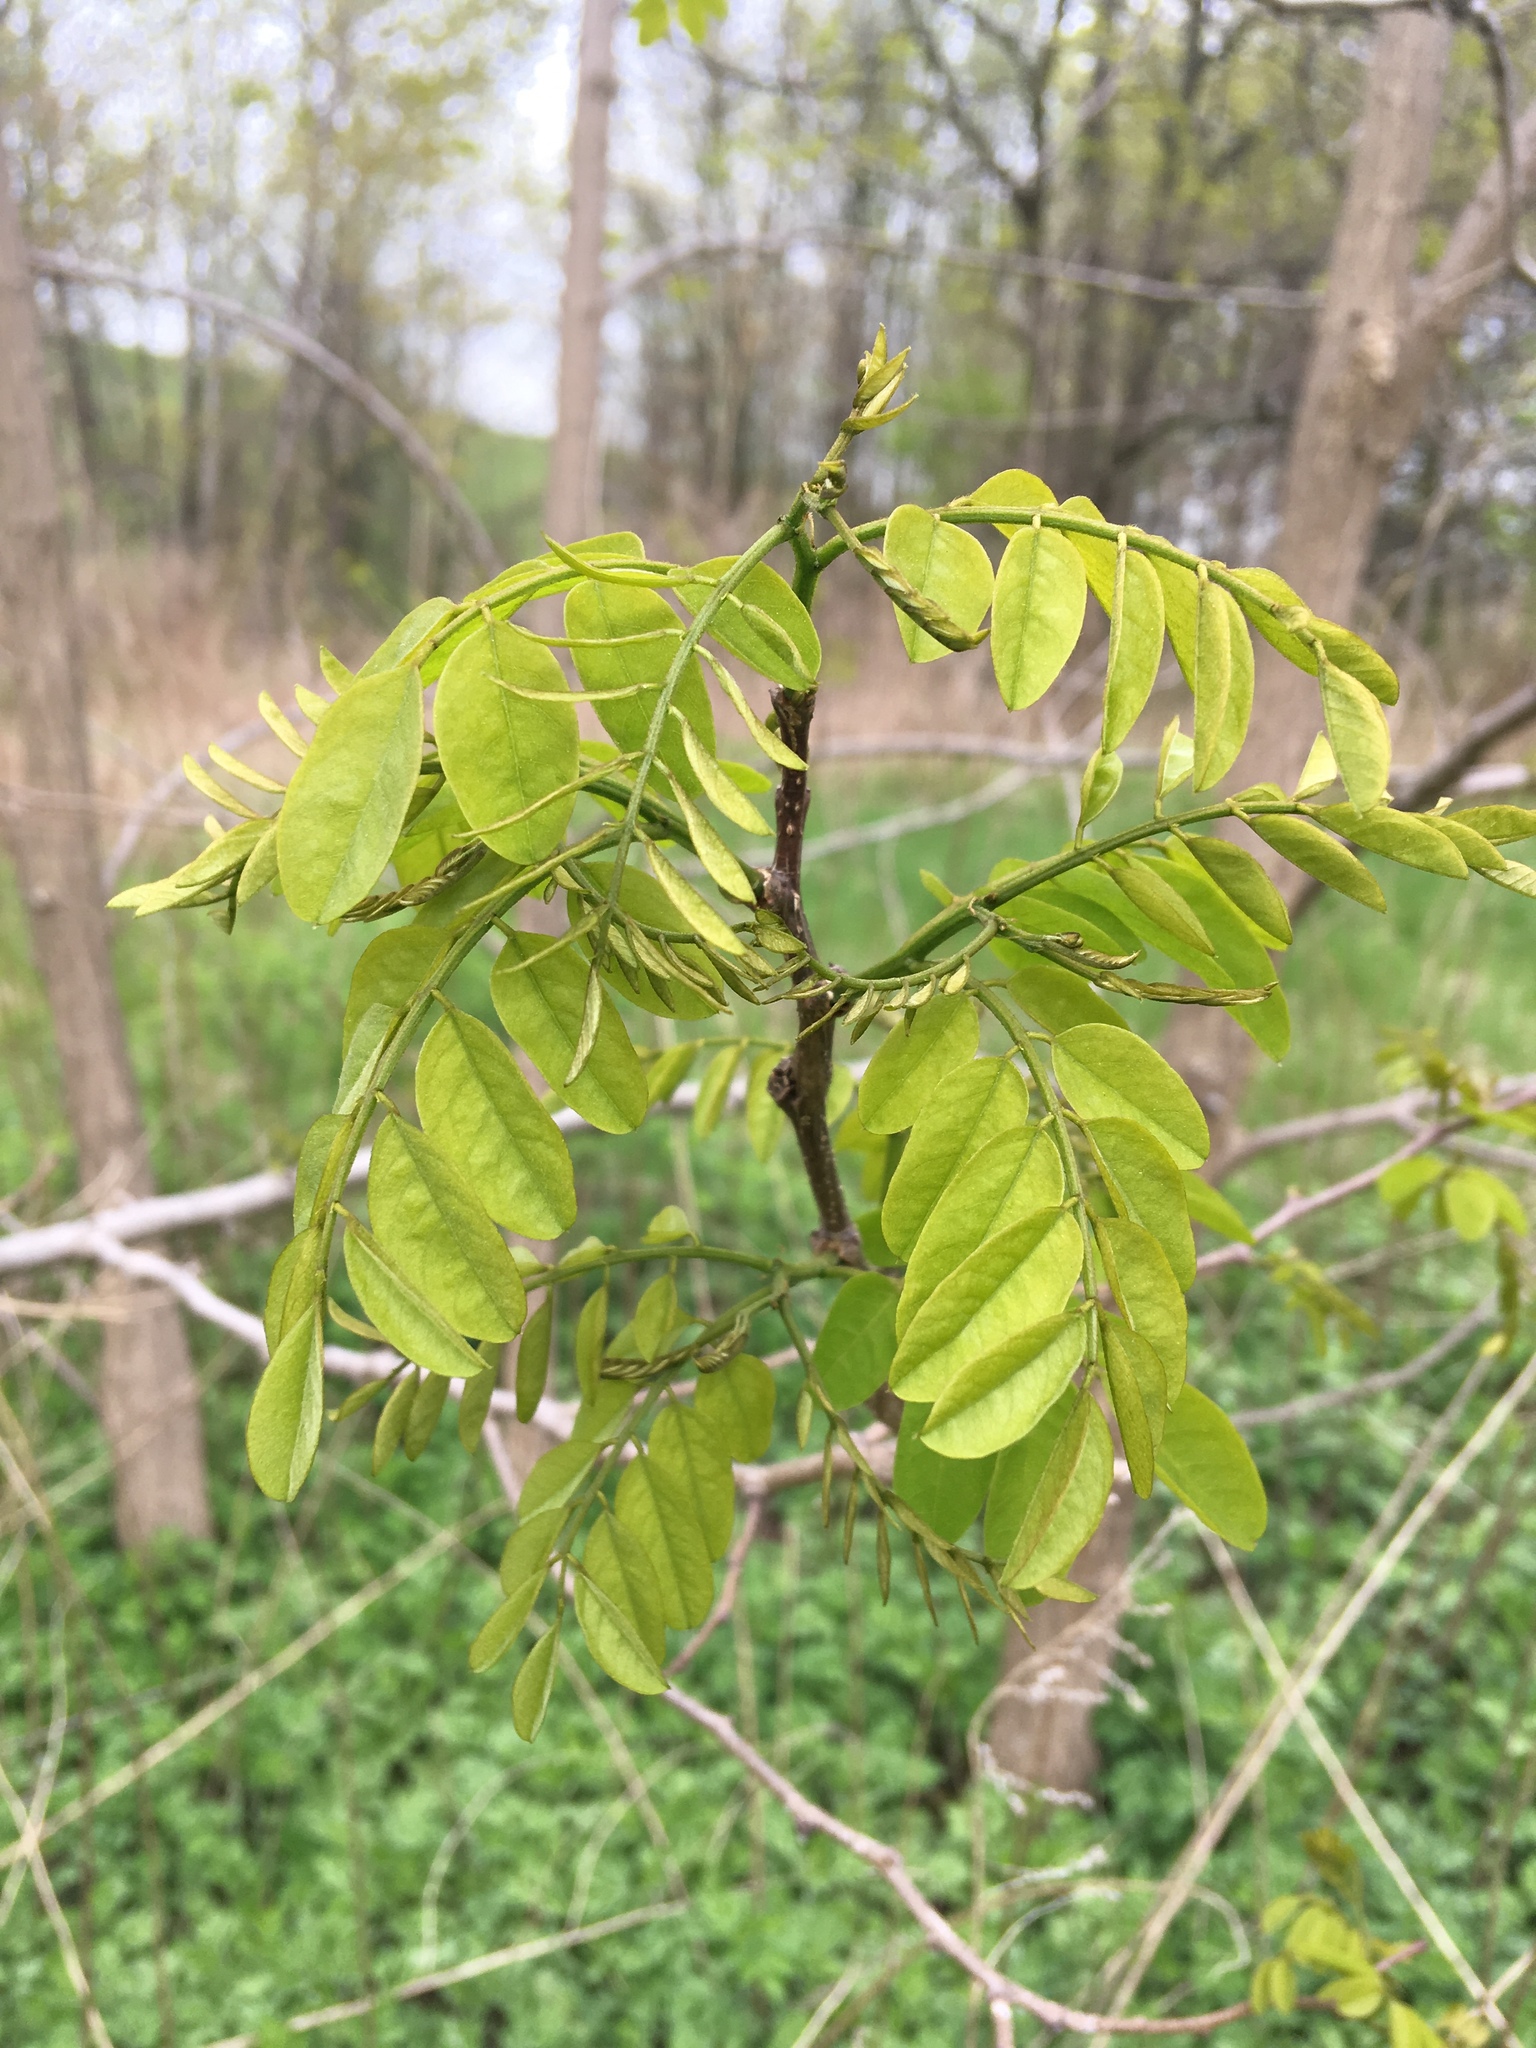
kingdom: Plantae
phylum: Tracheophyta
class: Magnoliopsida
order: Fabales
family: Fabaceae
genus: Robinia
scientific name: Robinia pseudoacacia
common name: Black locust
